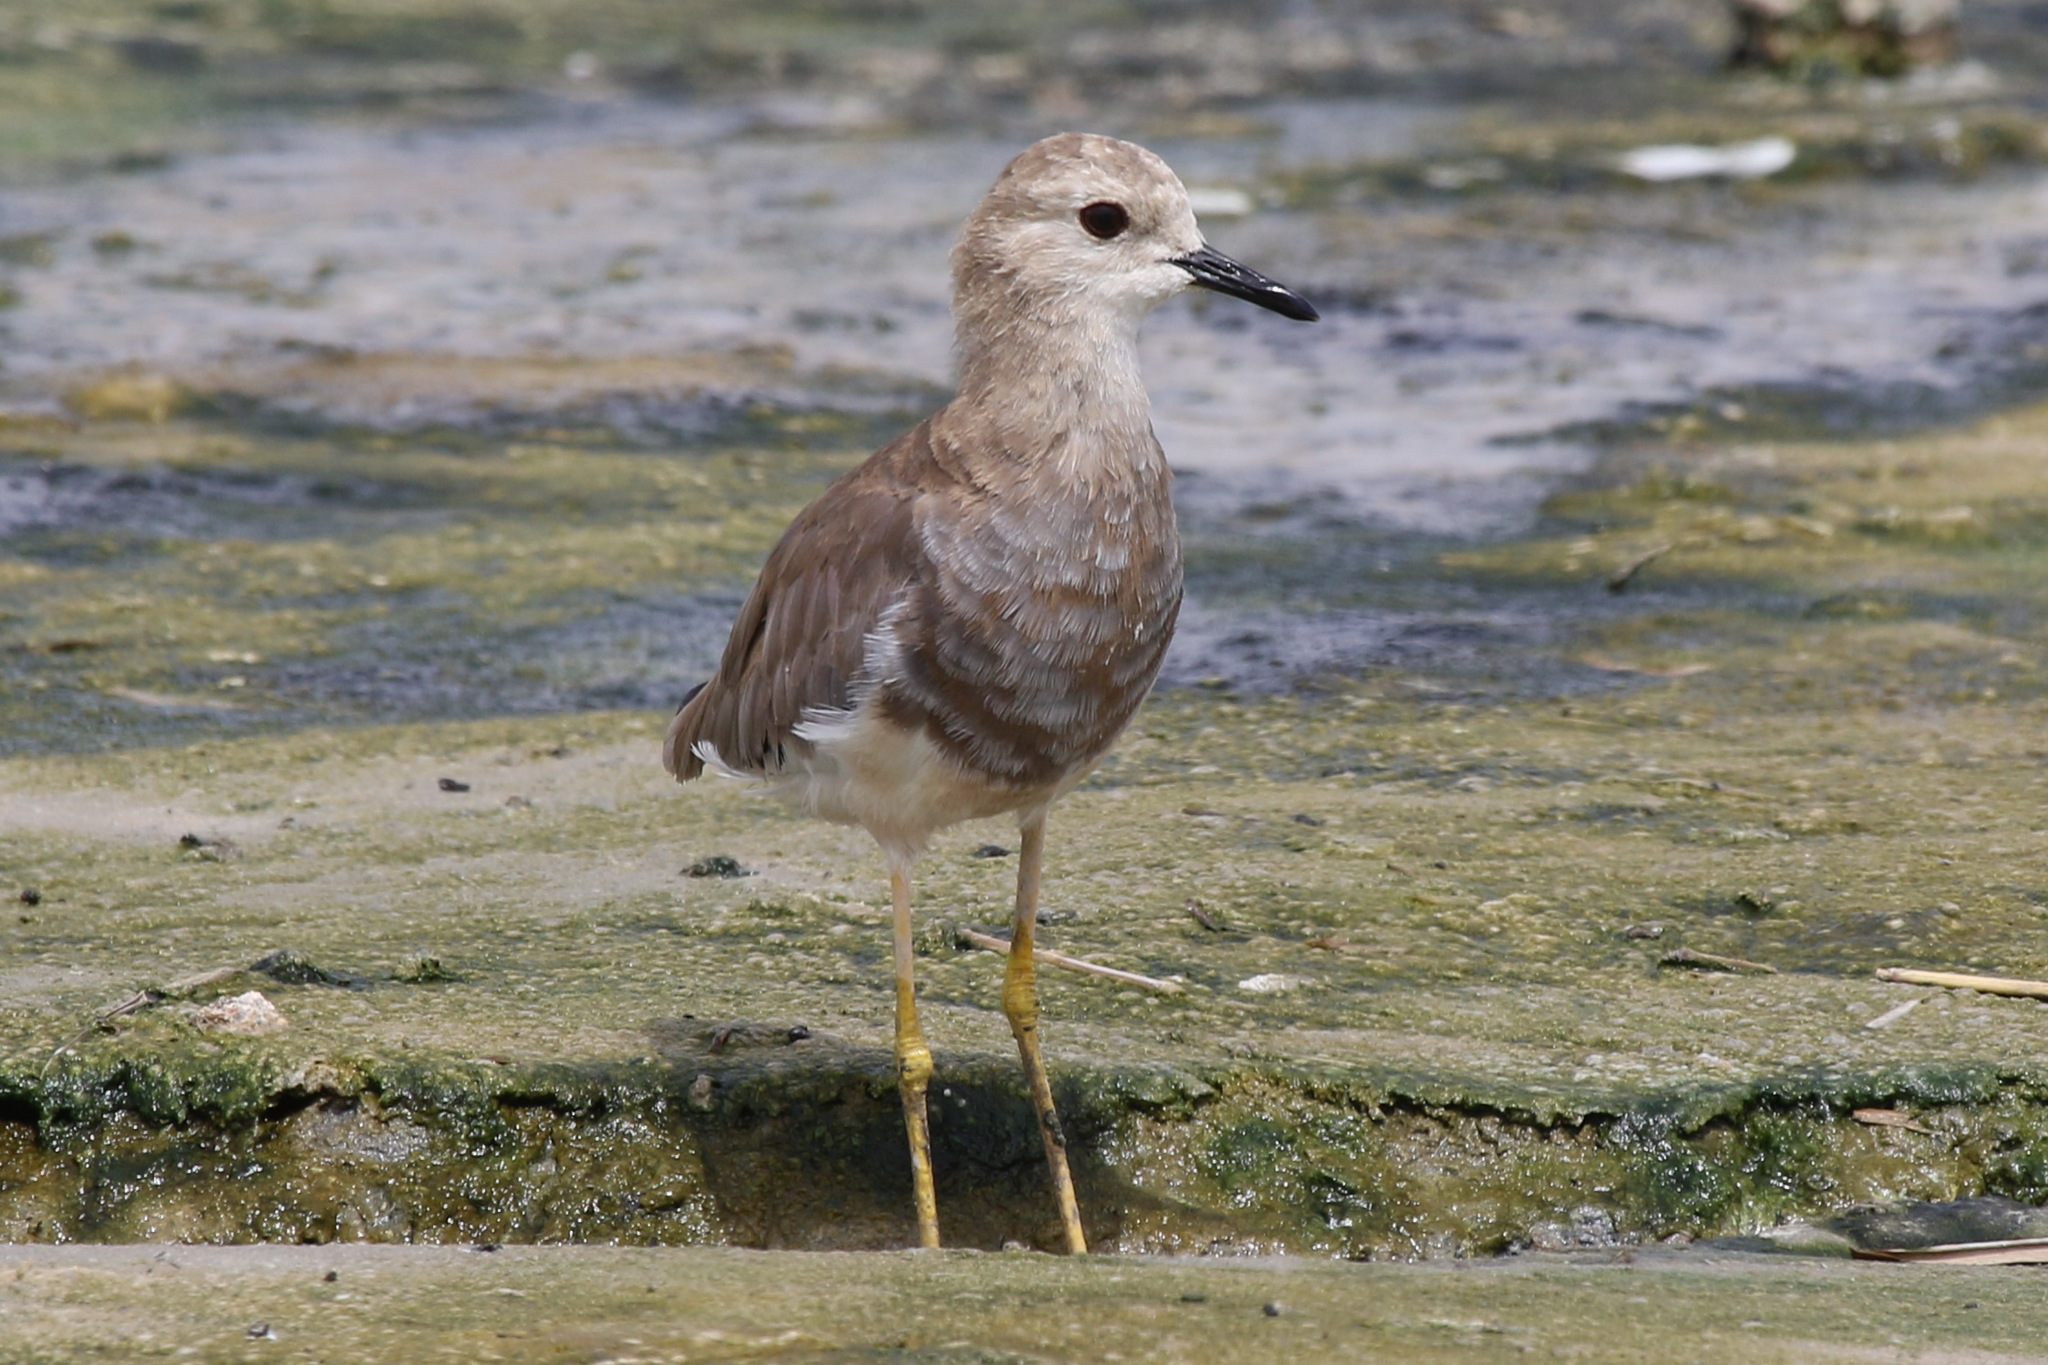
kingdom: Animalia
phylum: Chordata
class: Aves
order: Charadriiformes
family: Charadriidae
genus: Vanellus
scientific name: Vanellus leucurus
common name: White-tailed lapwing
